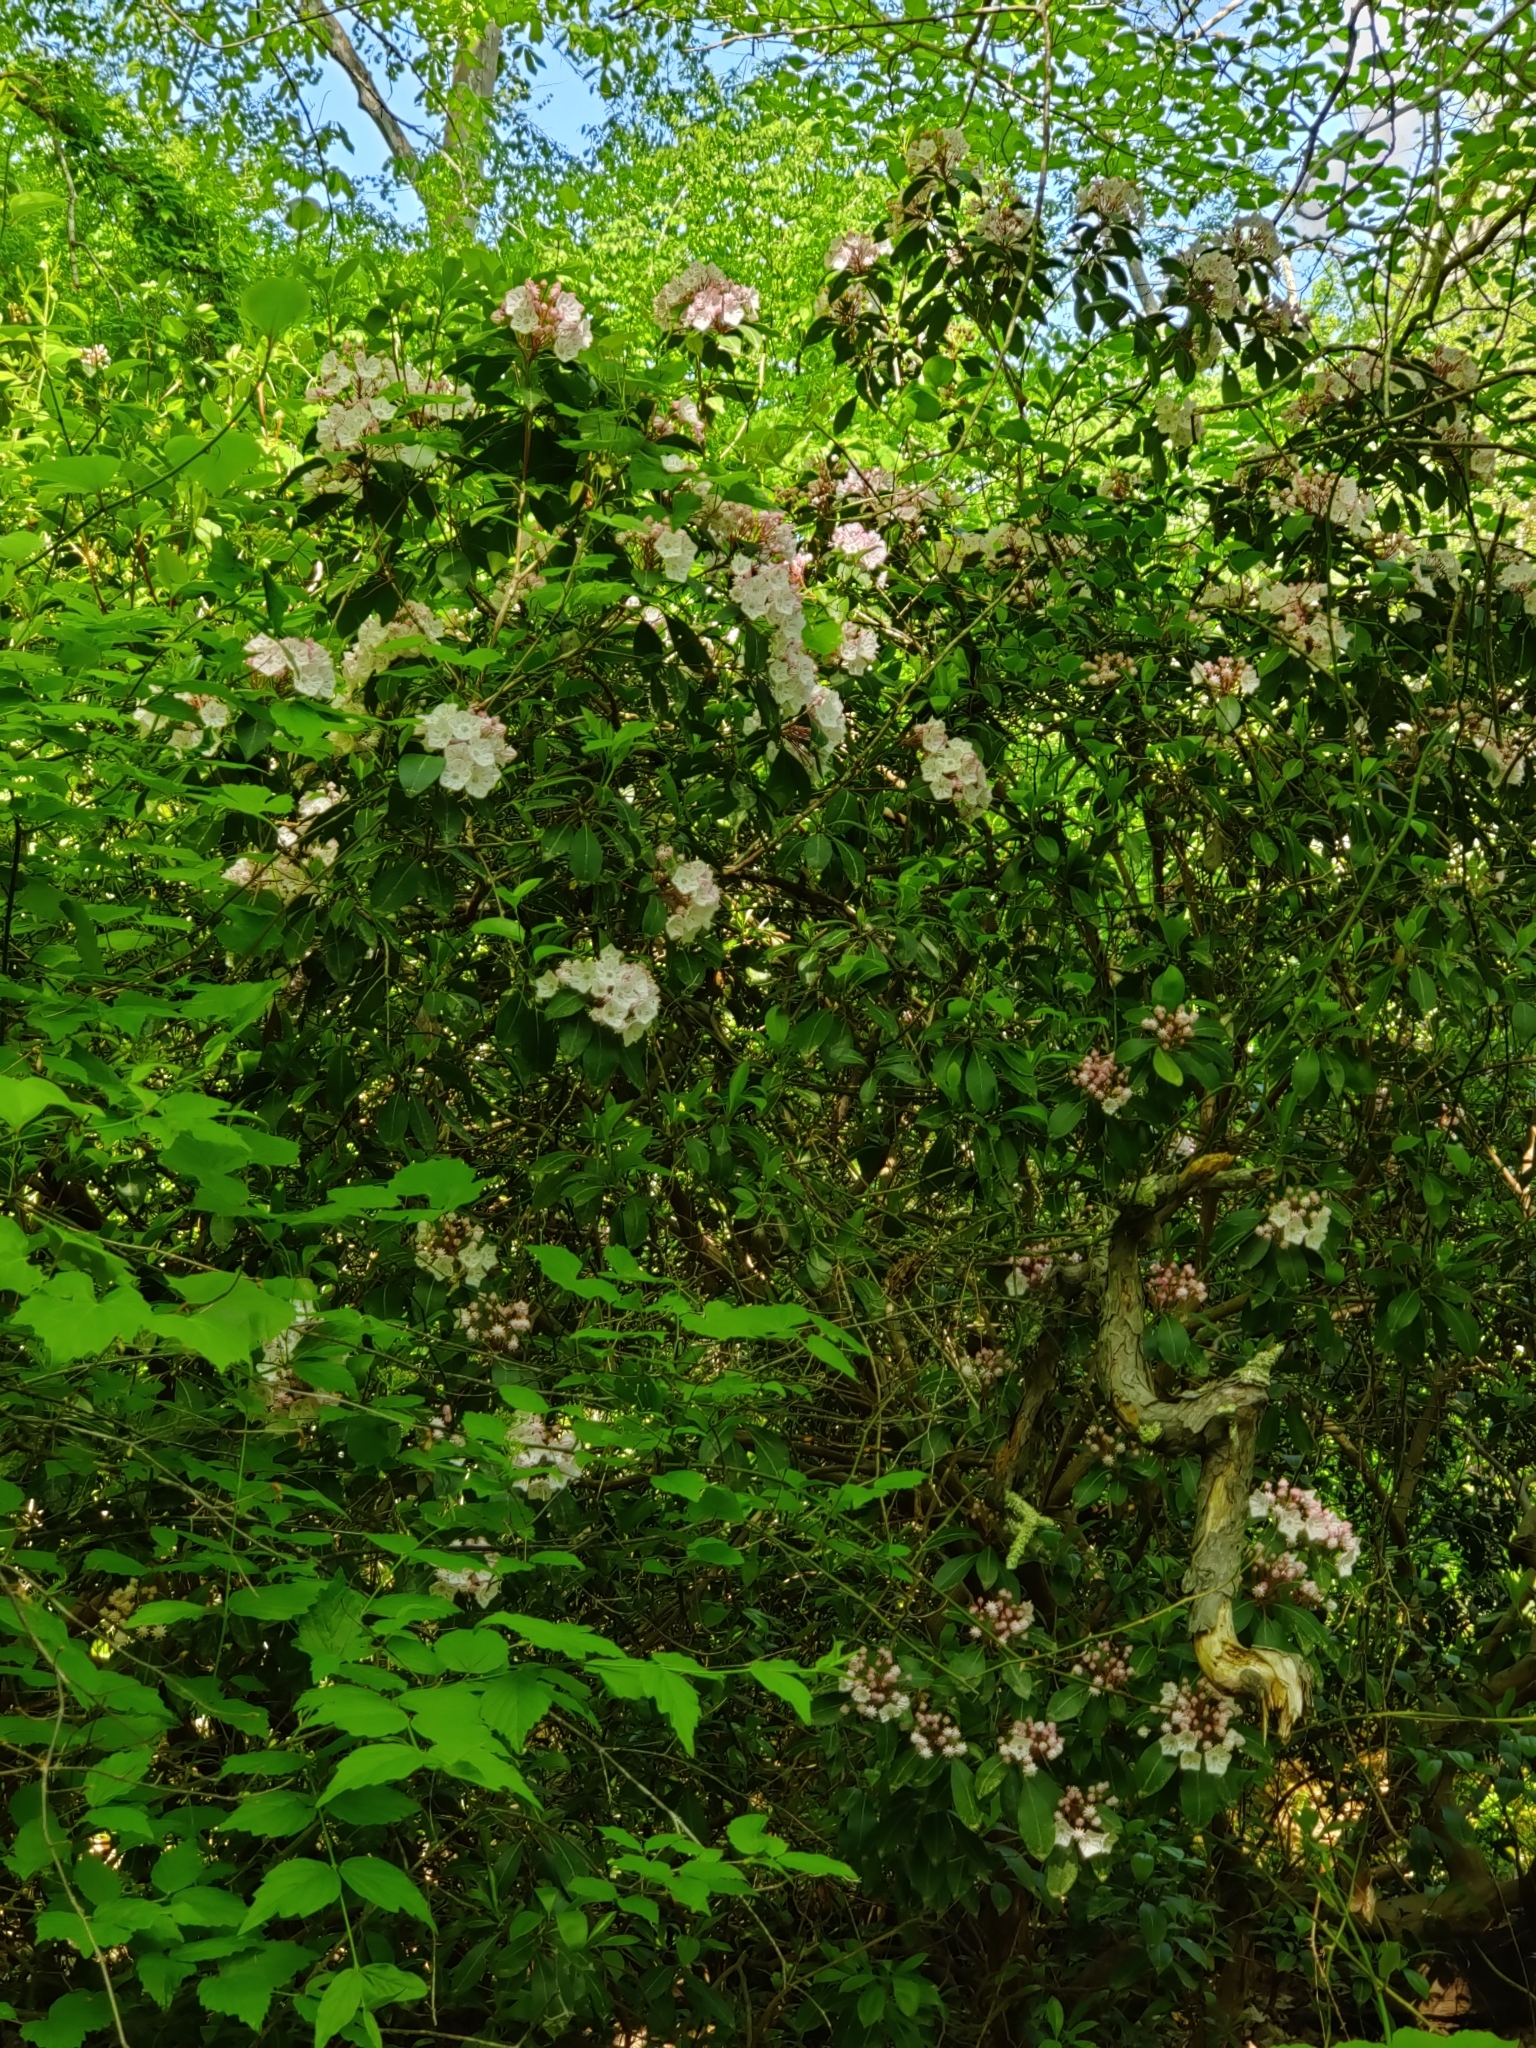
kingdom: Plantae
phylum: Tracheophyta
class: Magnoliopsida
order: Ericales
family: Ericaceae
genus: Kalmia
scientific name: Kalmia latifolia
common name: Mountain-laurel
